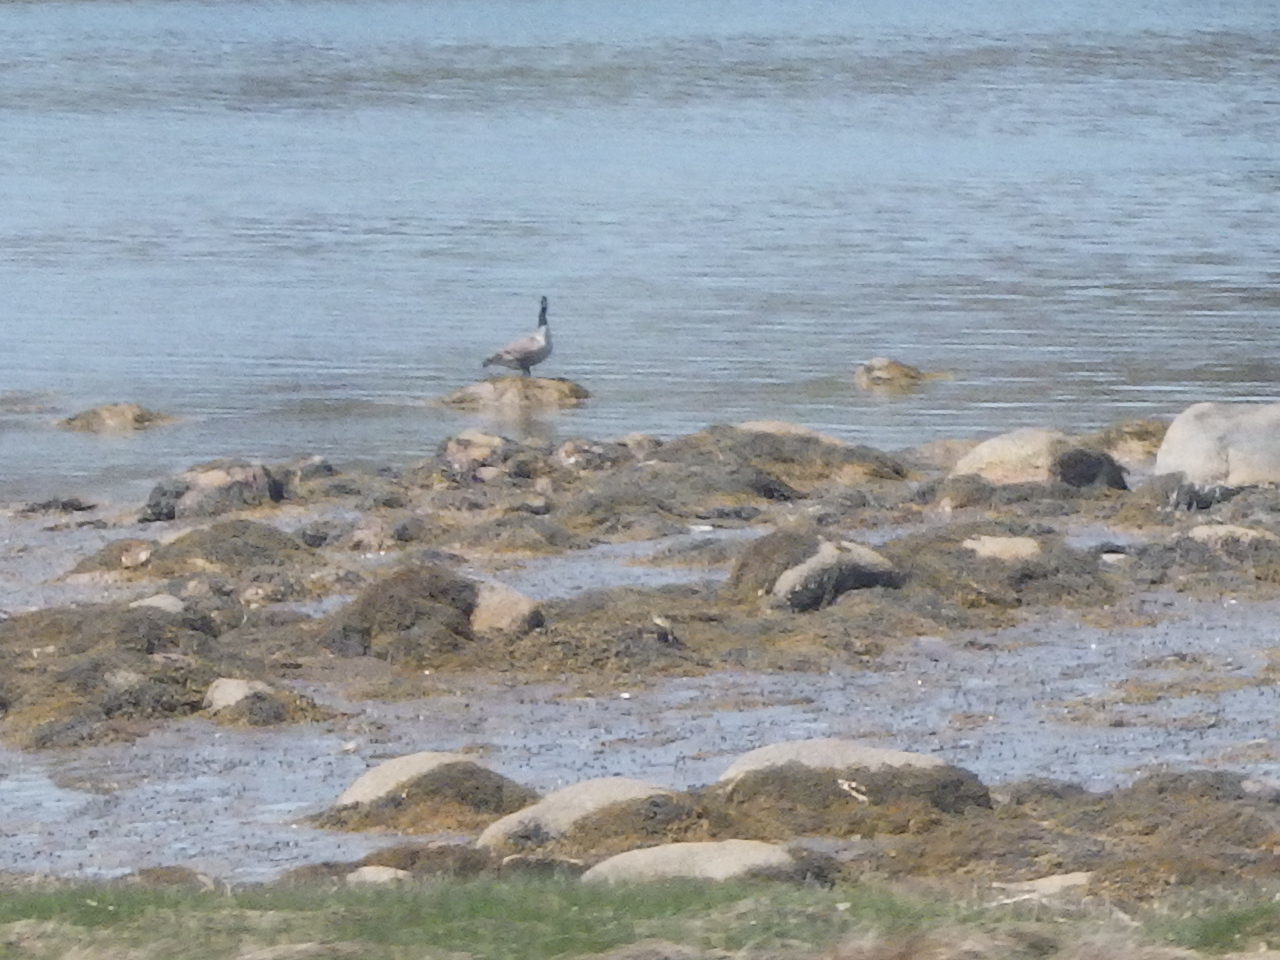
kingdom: Animalia
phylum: Chordata
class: Aves
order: Anseriformes
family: Anatidae
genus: Branta
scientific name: Branta canadensis
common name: Canada goose
